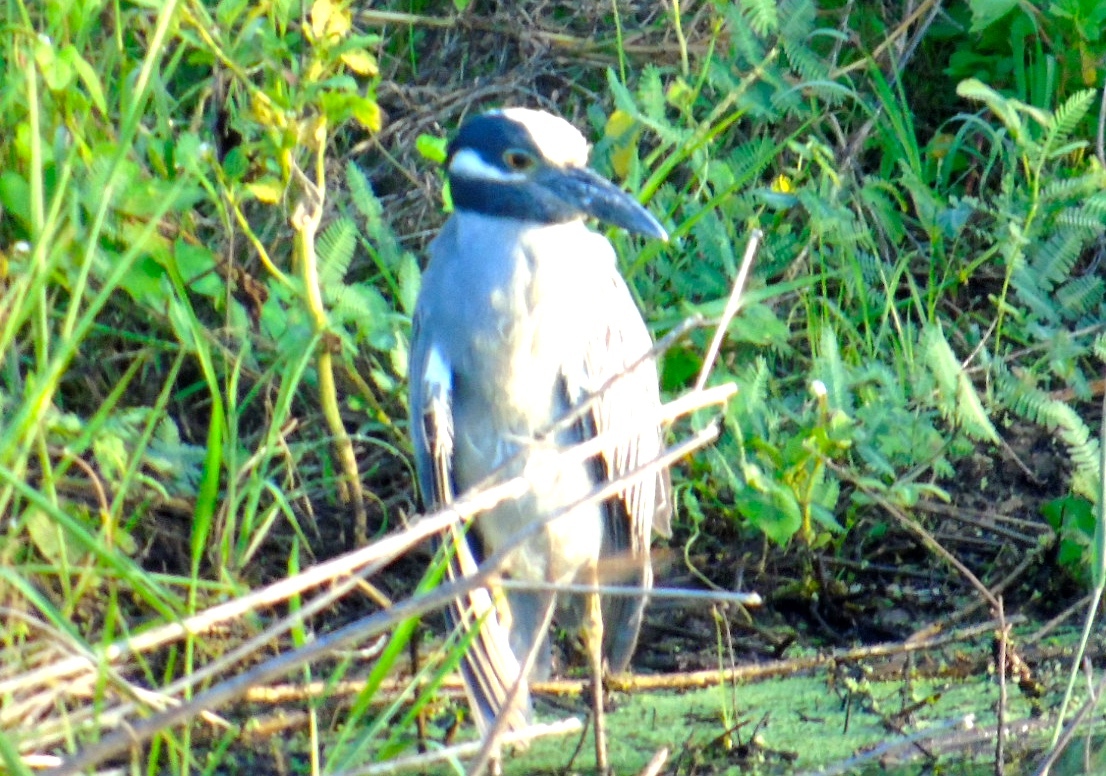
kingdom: Animalia
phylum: Chordata
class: Aves
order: Pelecaniformes
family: Ardeidae
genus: Nyctanassa
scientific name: Nyctanassa violacea
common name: Yellow-crowned night heron
